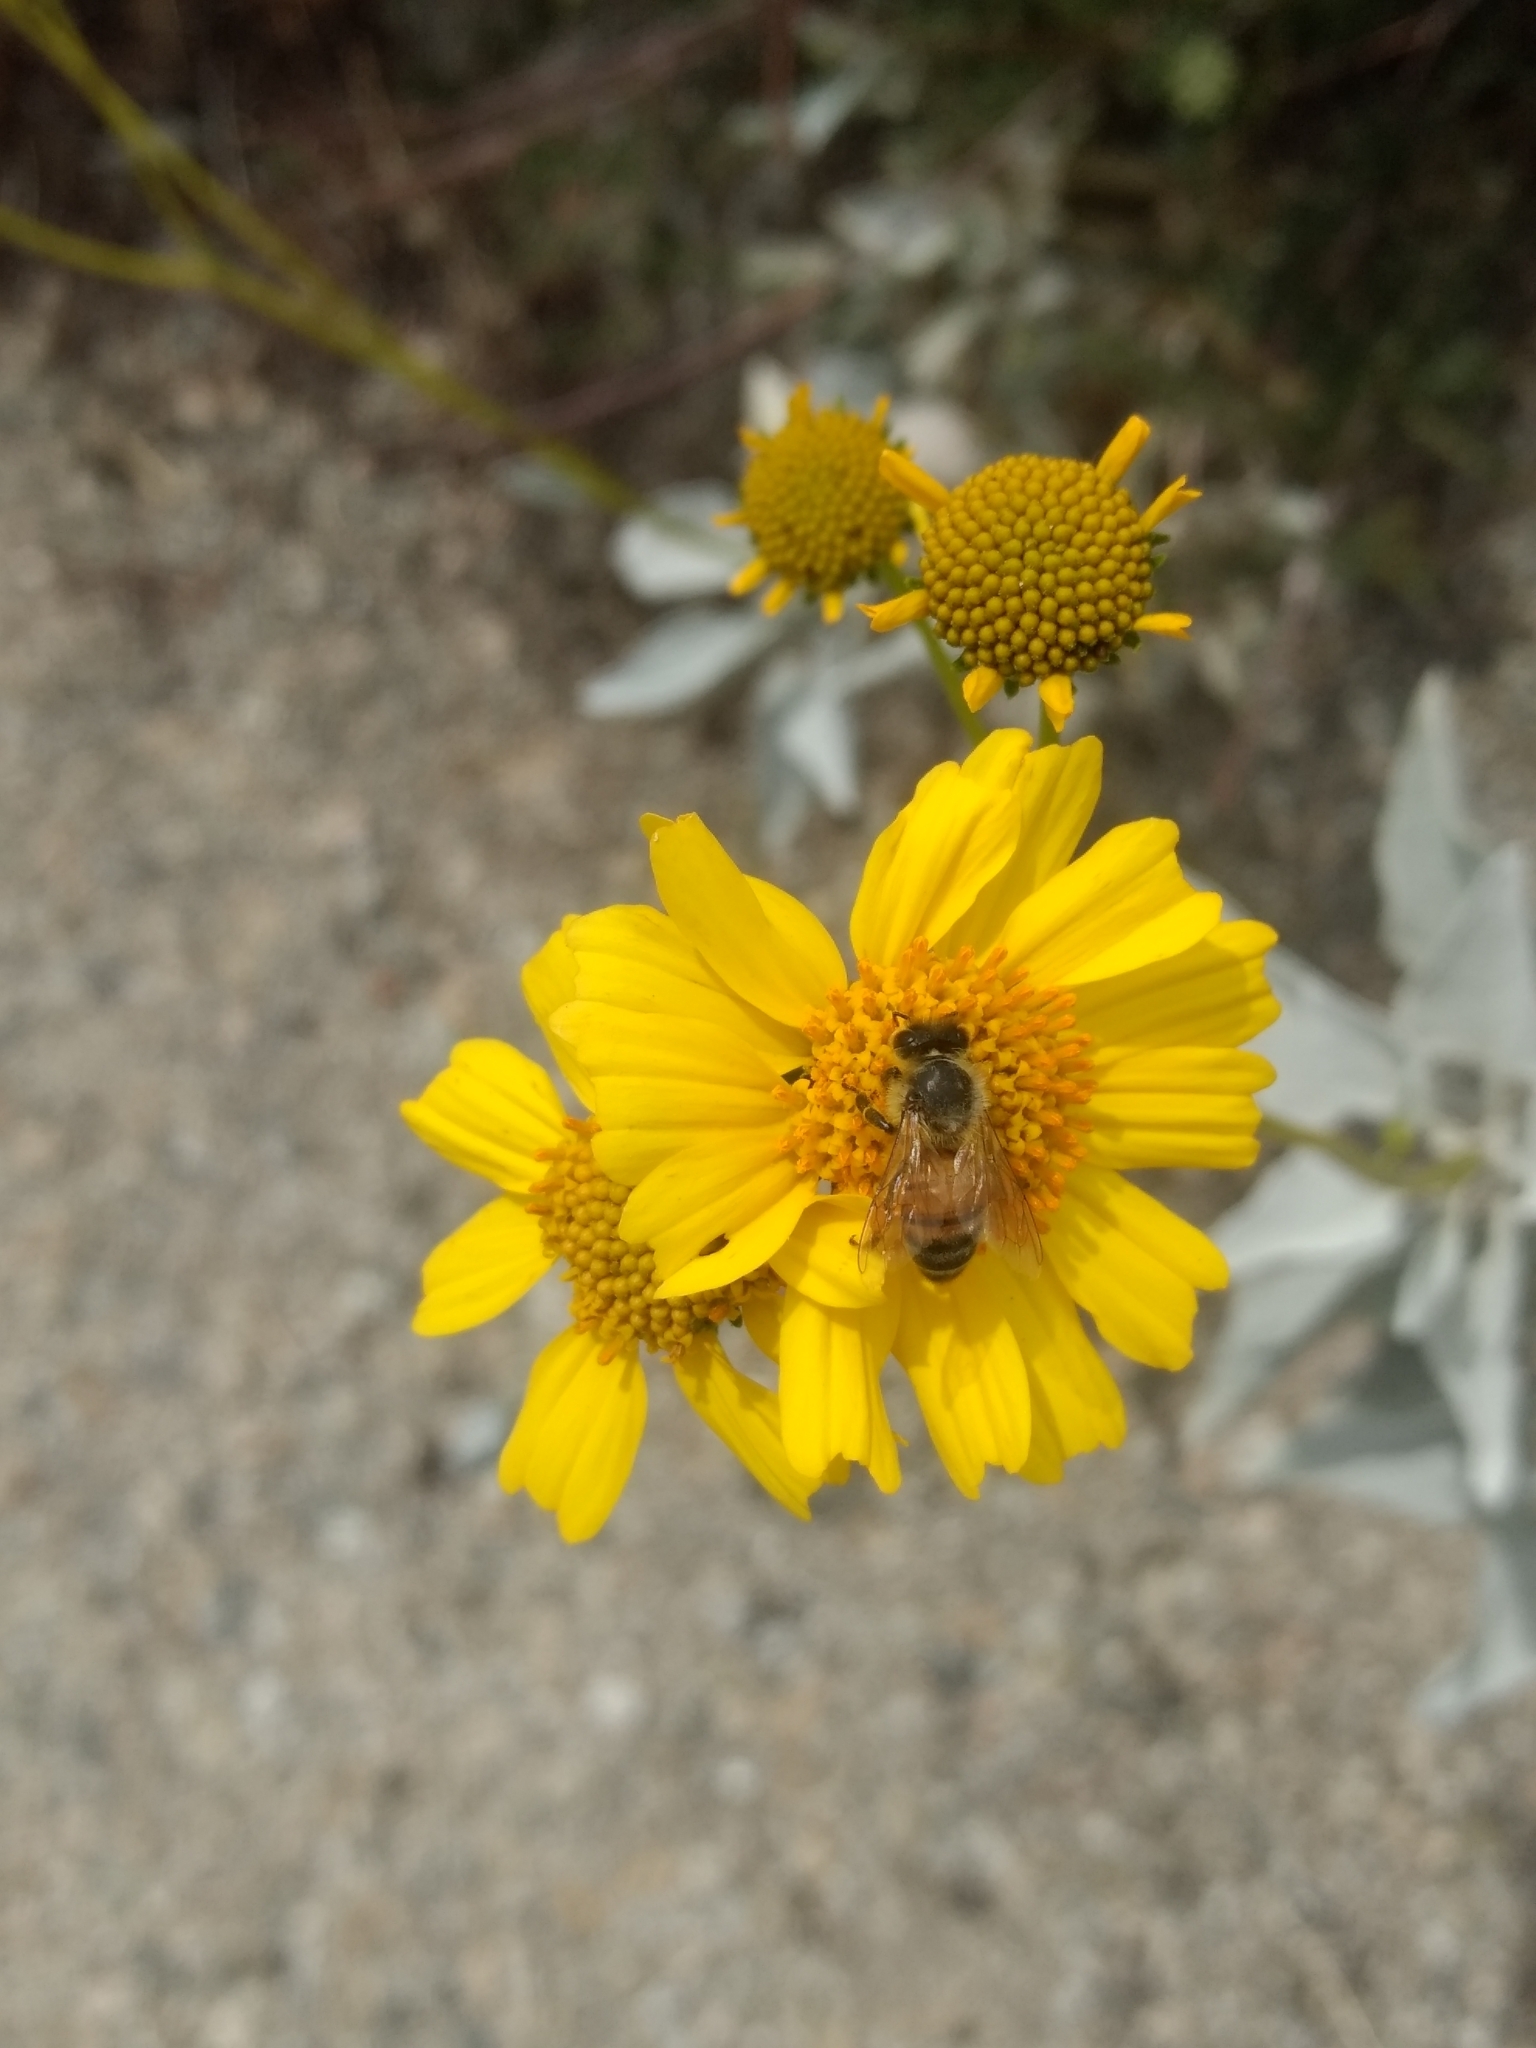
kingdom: Animalia
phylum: Arthropoda
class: Insecta
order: Hymenoptera
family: Apidae
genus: Apis
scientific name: Apis mellifera
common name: Honey bee
